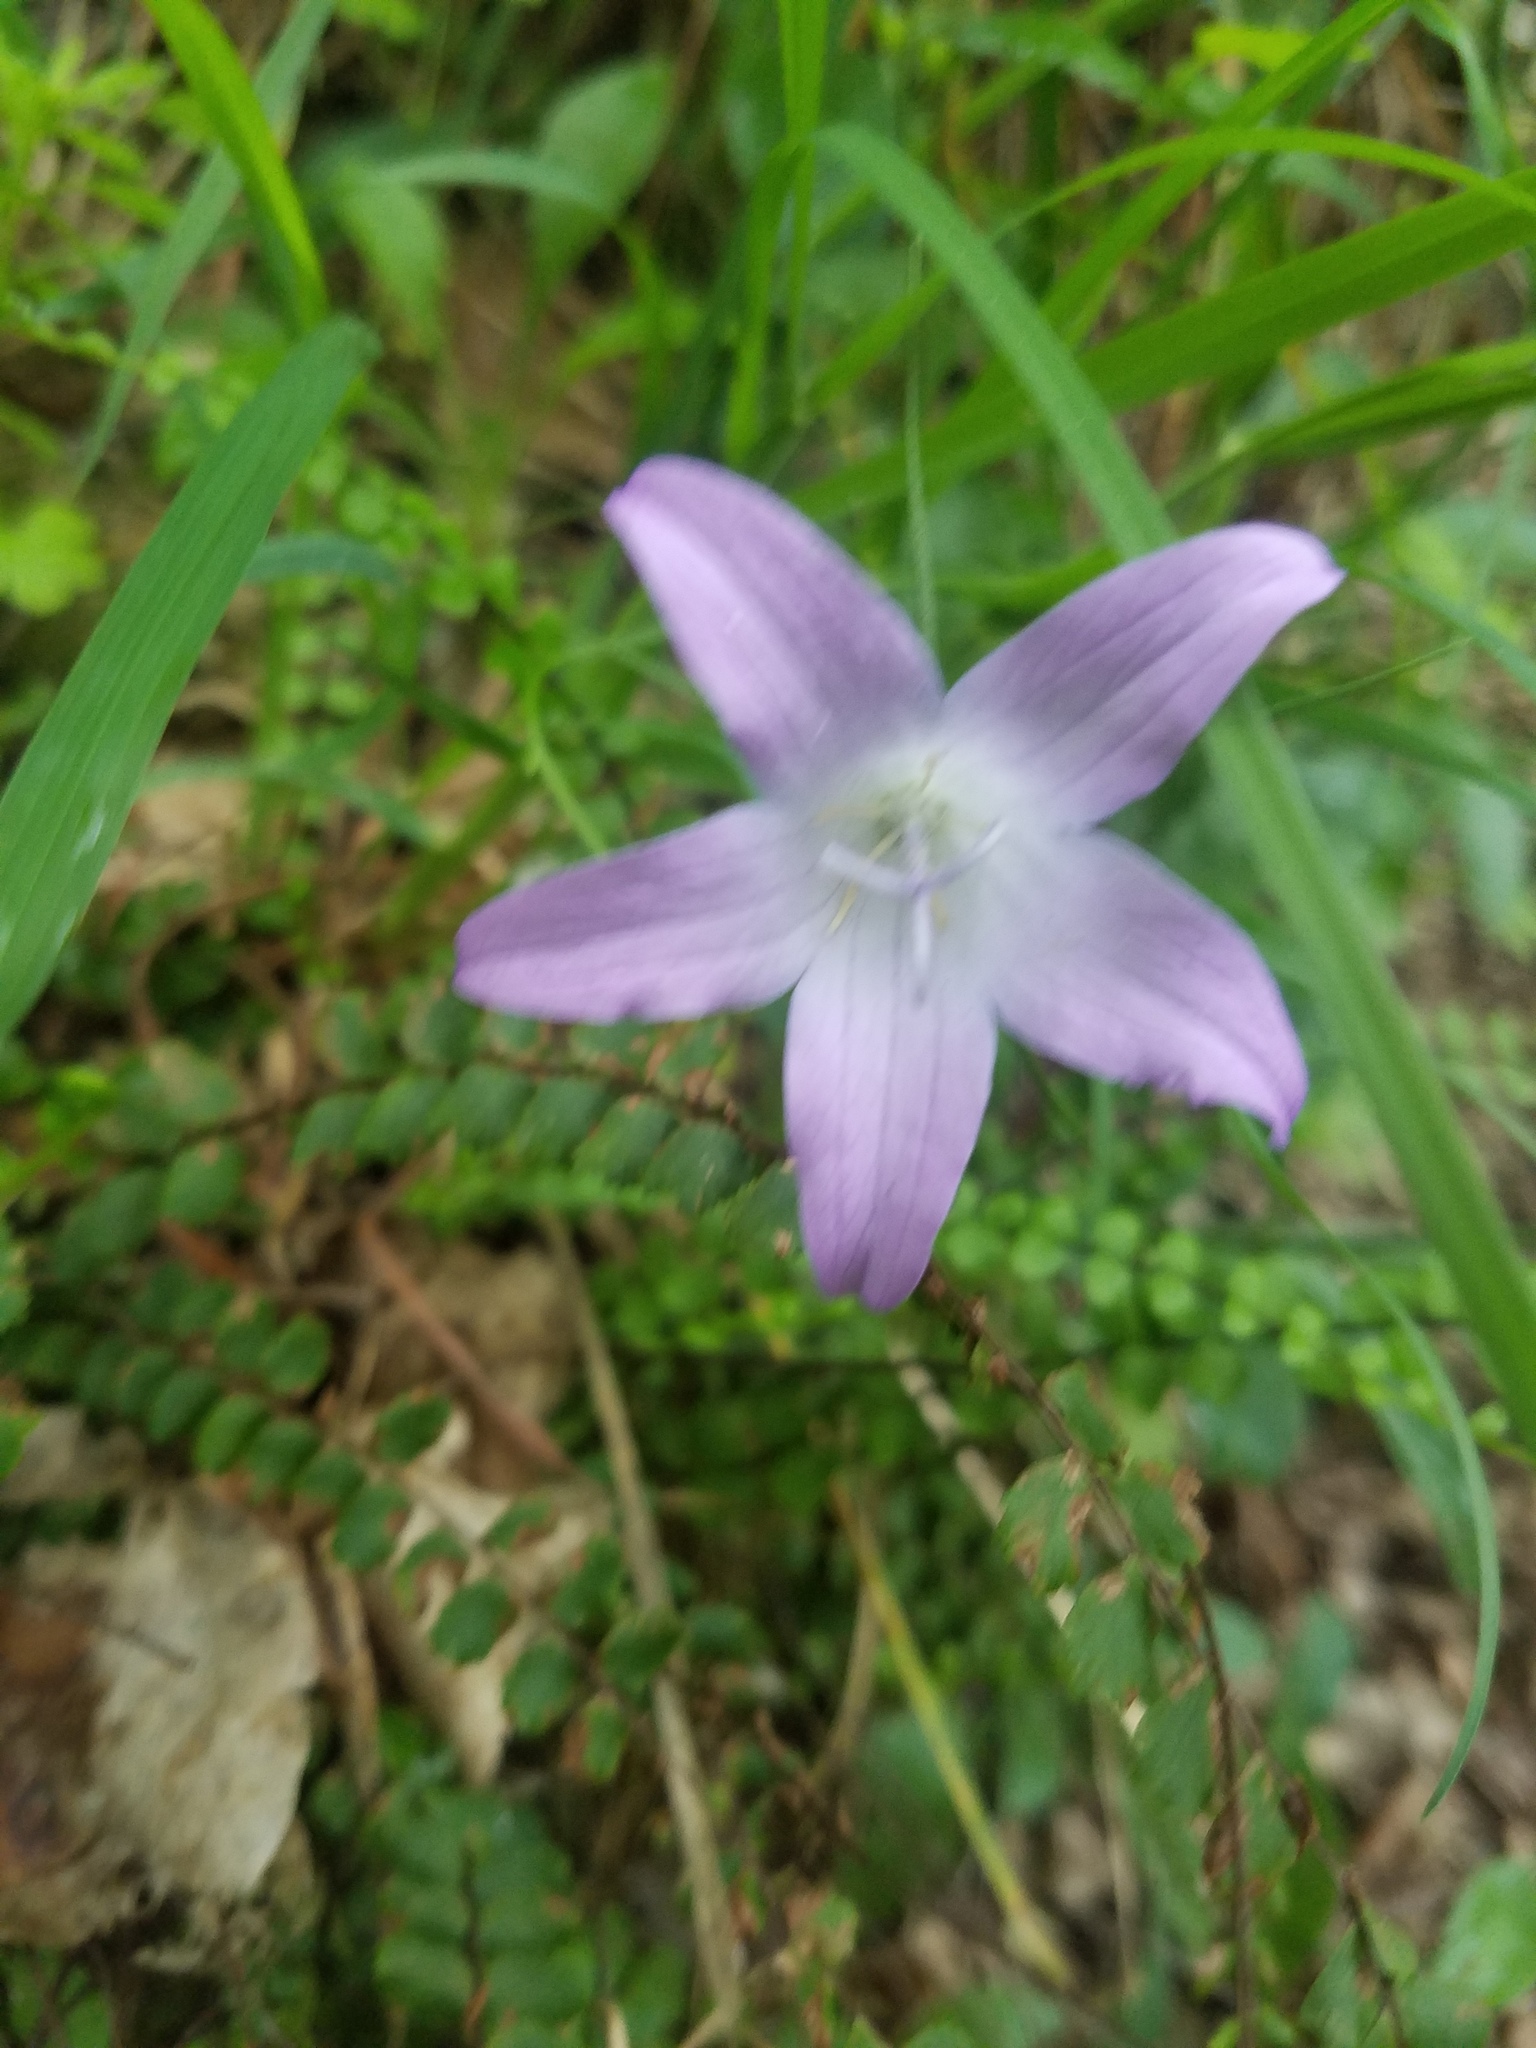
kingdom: Plantae
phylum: Tracheophyta
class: Magnoliopsida
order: Asterales
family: Campanulaceae
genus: Campanula
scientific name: Campanula patula
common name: Spreading bellflower
